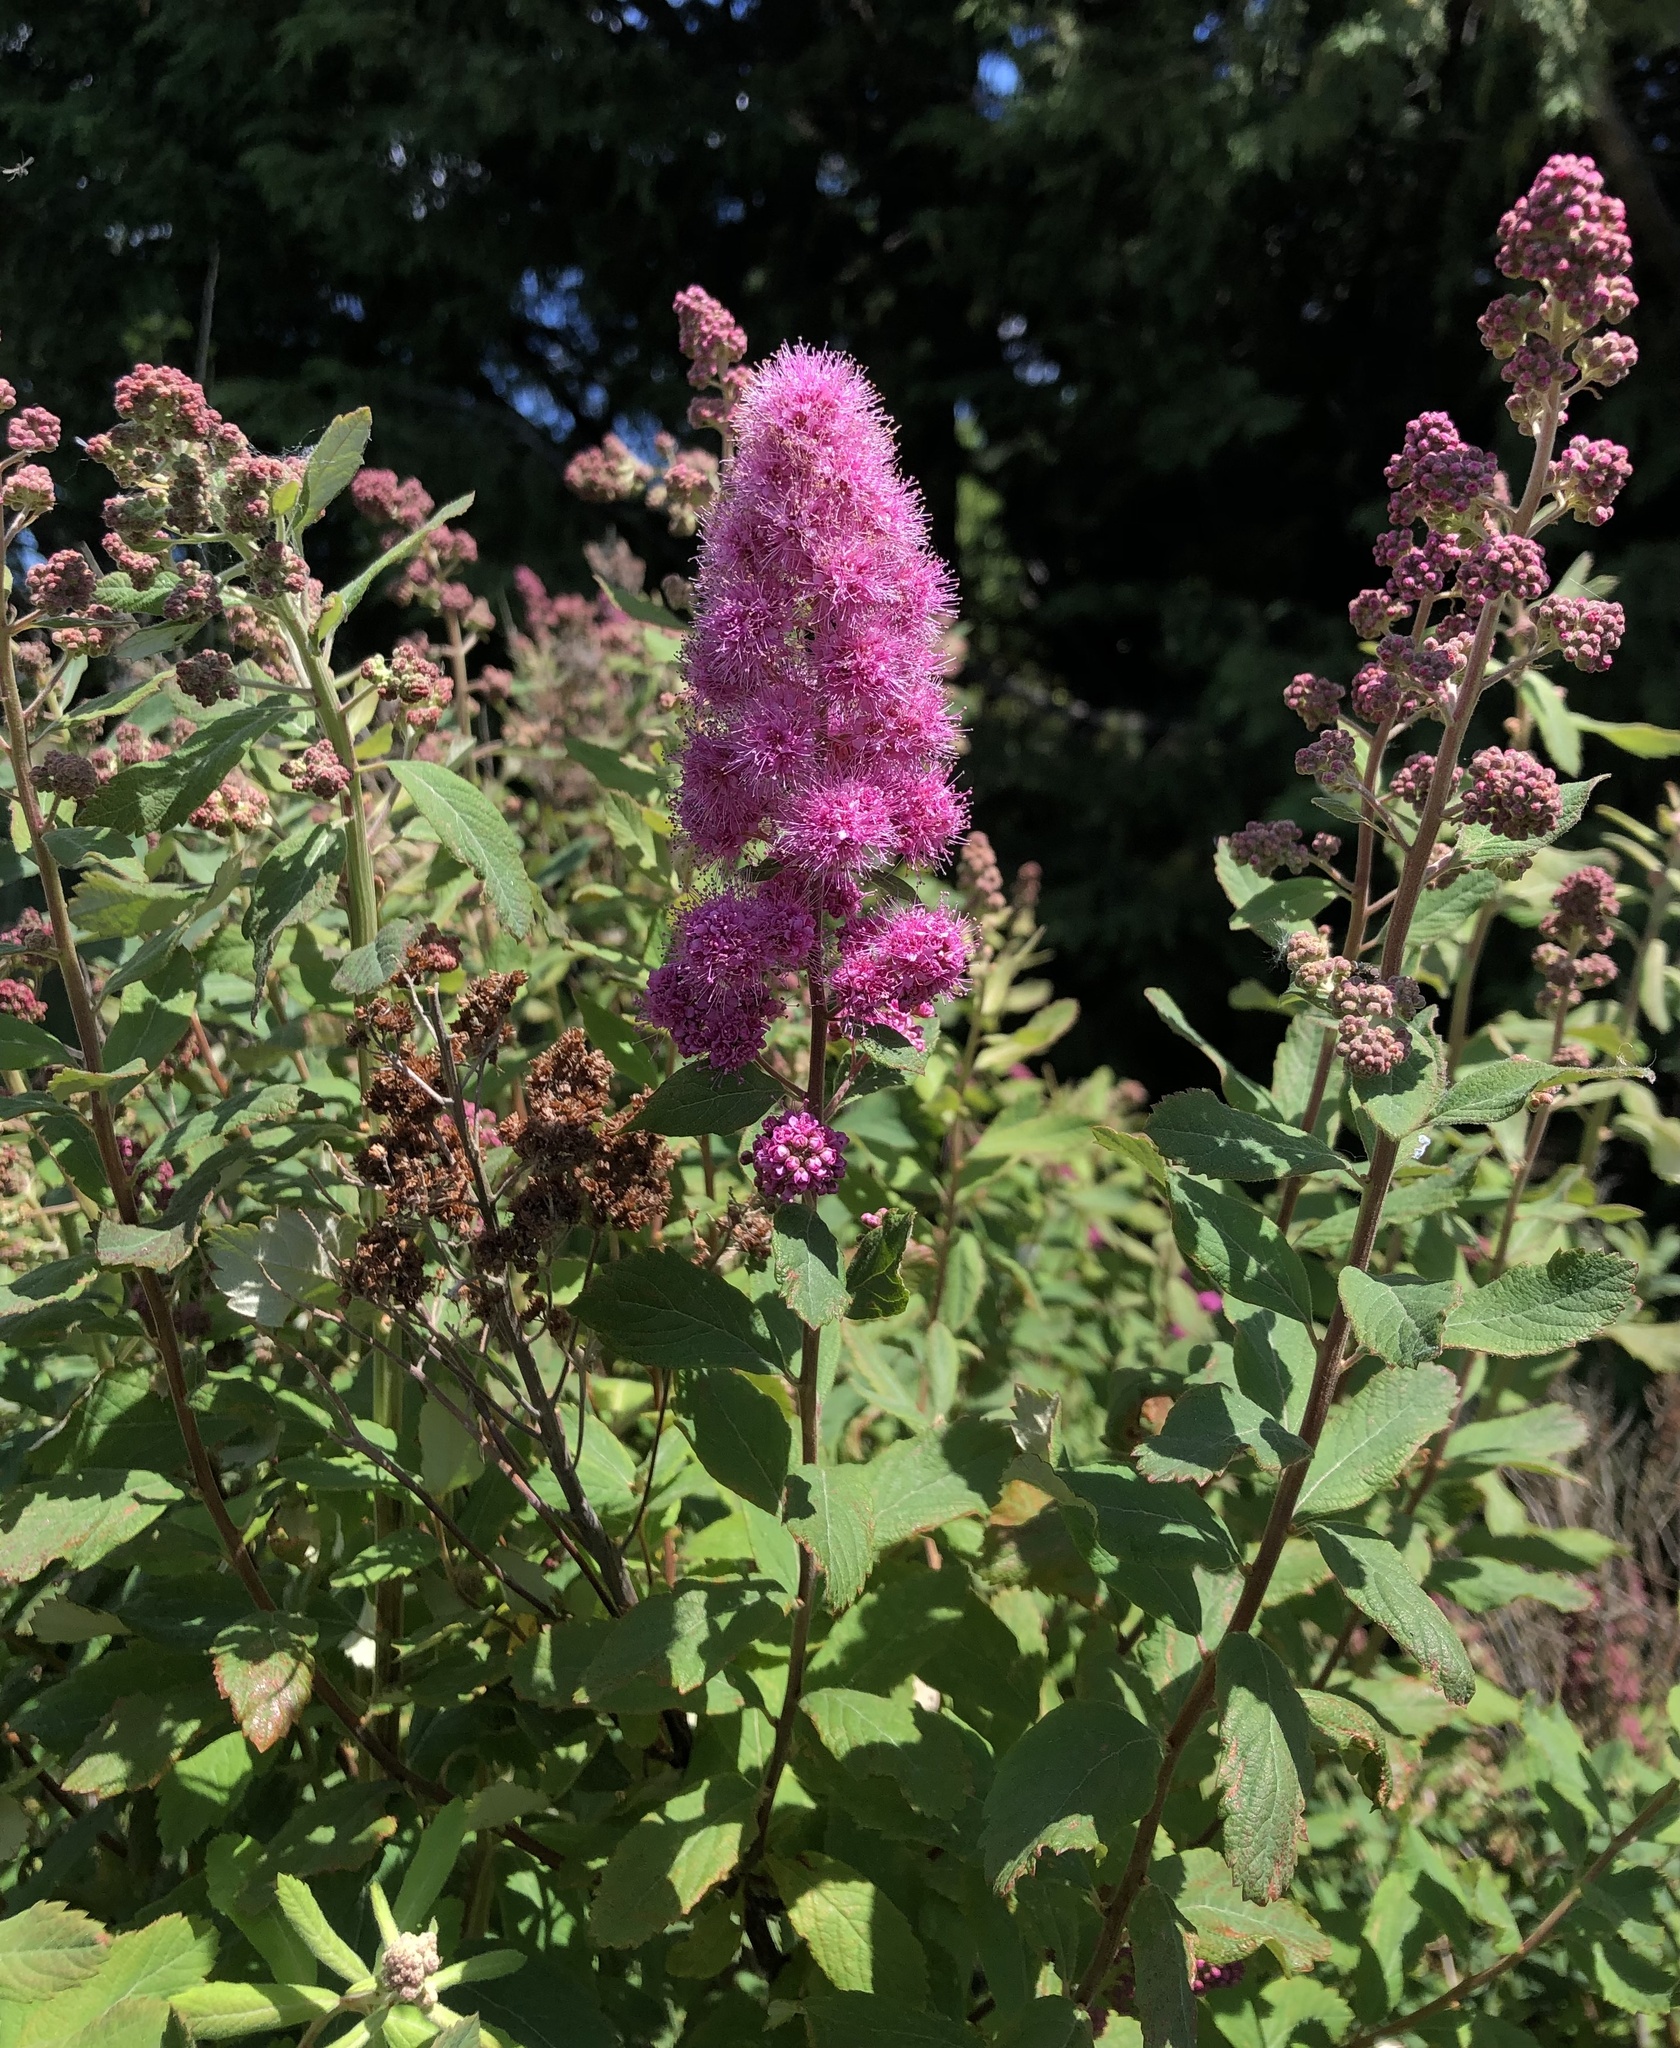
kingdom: Plantae
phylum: Tracheophyta
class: Magnoliopsida
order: Rosales
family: Rosaceae
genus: Spiraea
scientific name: Spiraea douglasii
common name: Steeplebush
